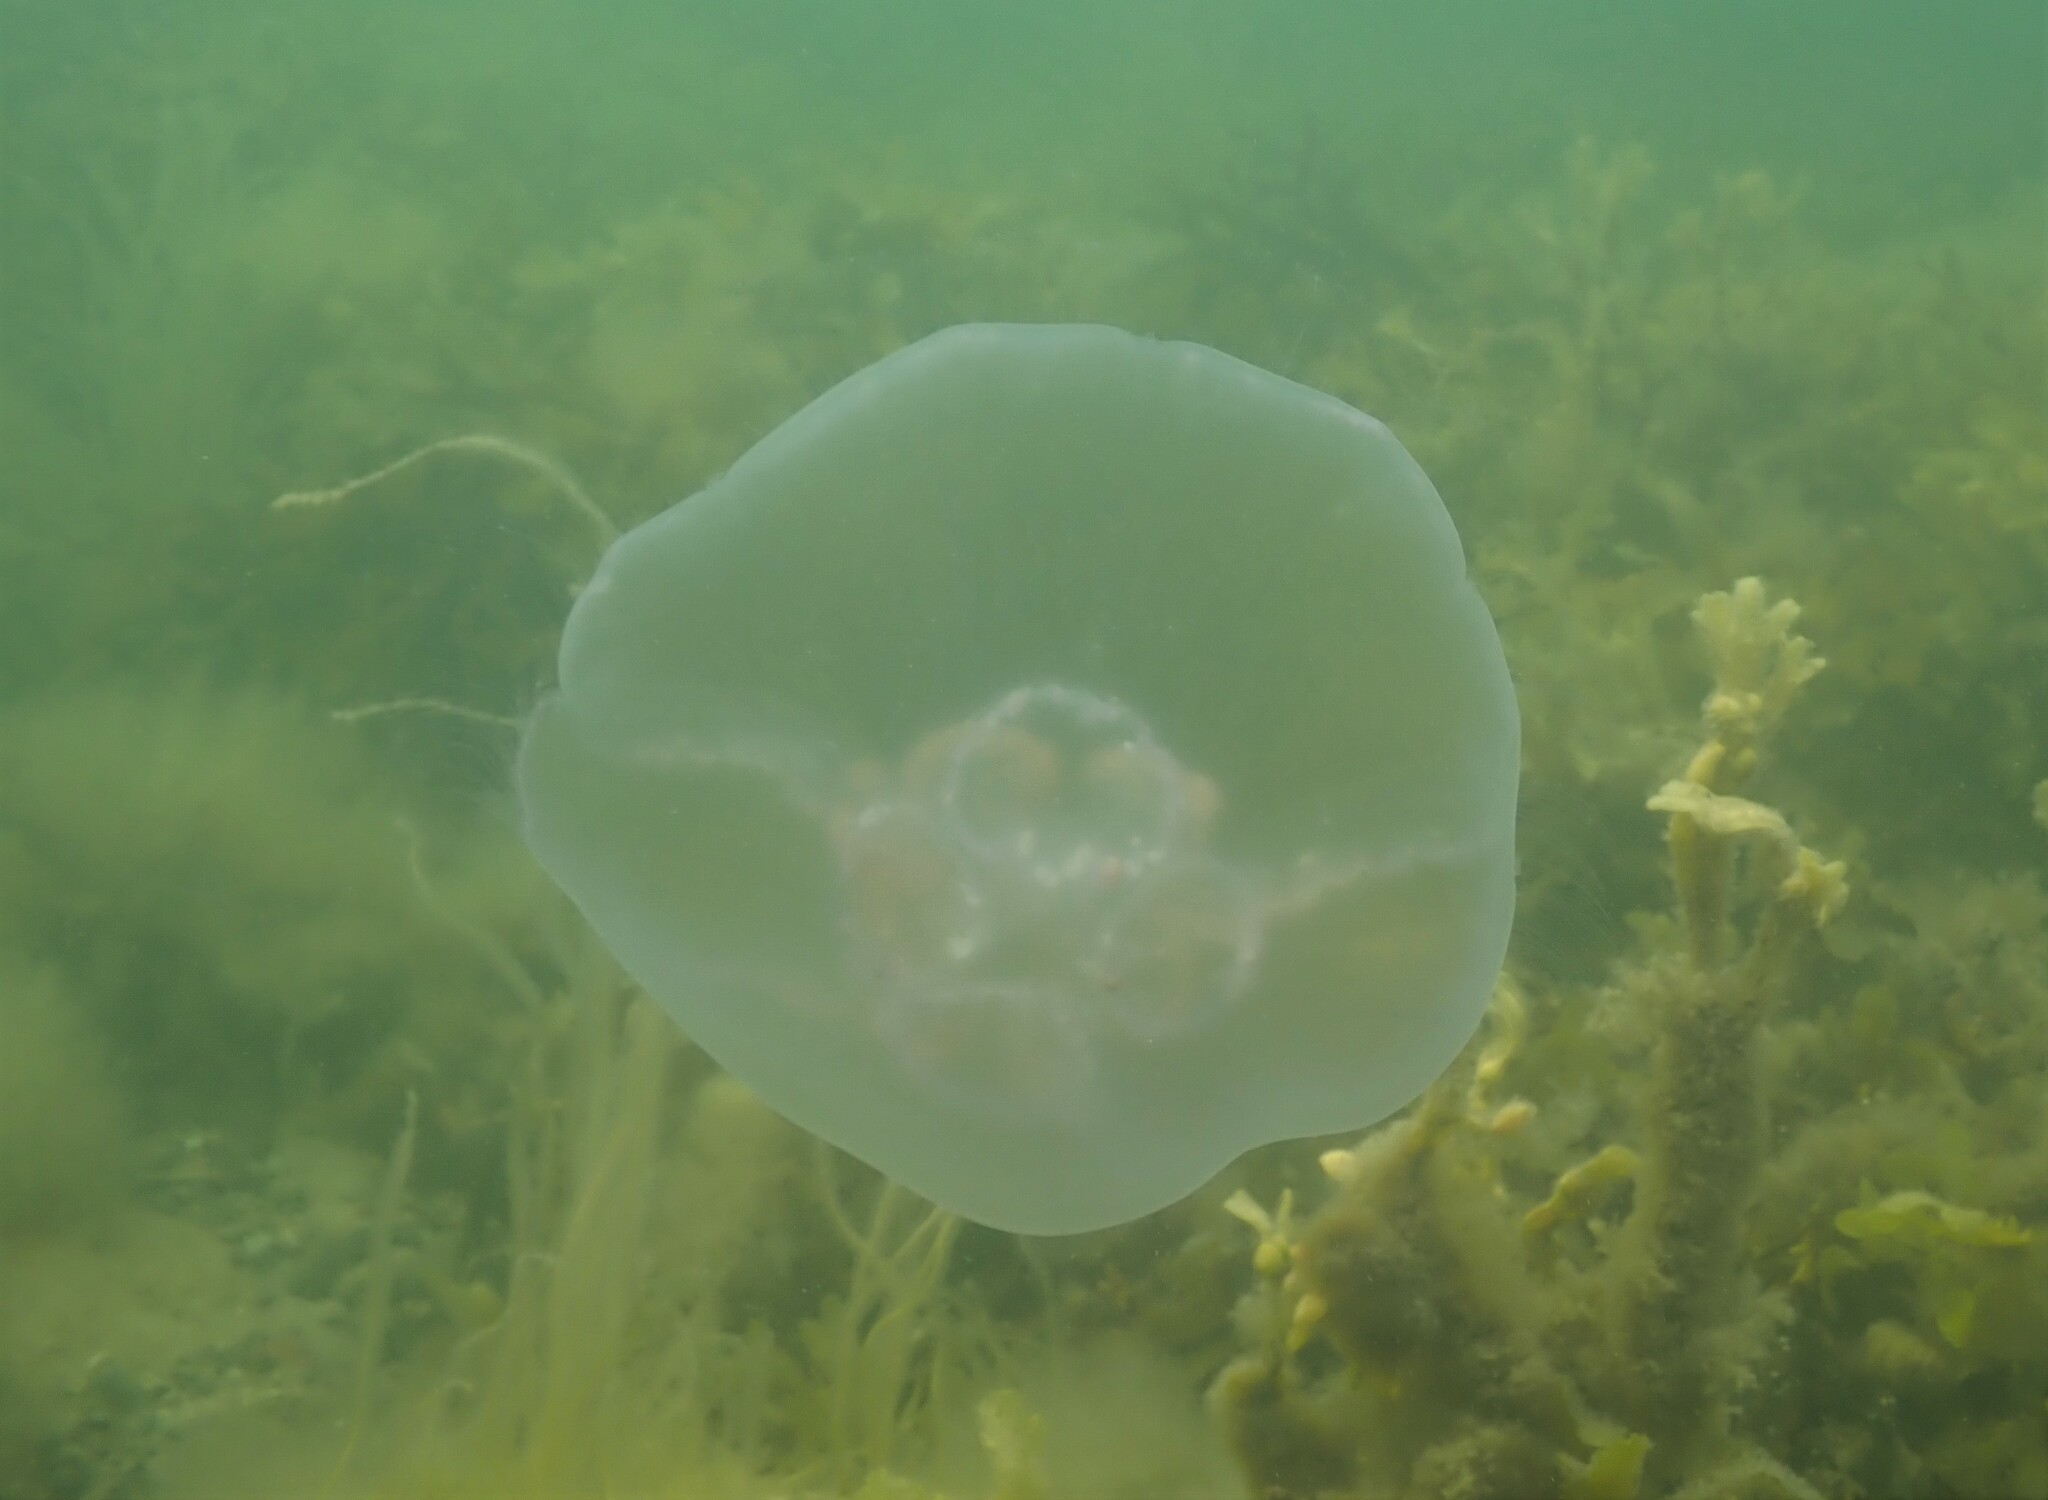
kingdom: Animalia
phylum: Cnidaria
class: Scyphozoa
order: Semaeostomeae
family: Ulmaridae
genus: Aurelia
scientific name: Aurelia aurita
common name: Moon jellyfish
